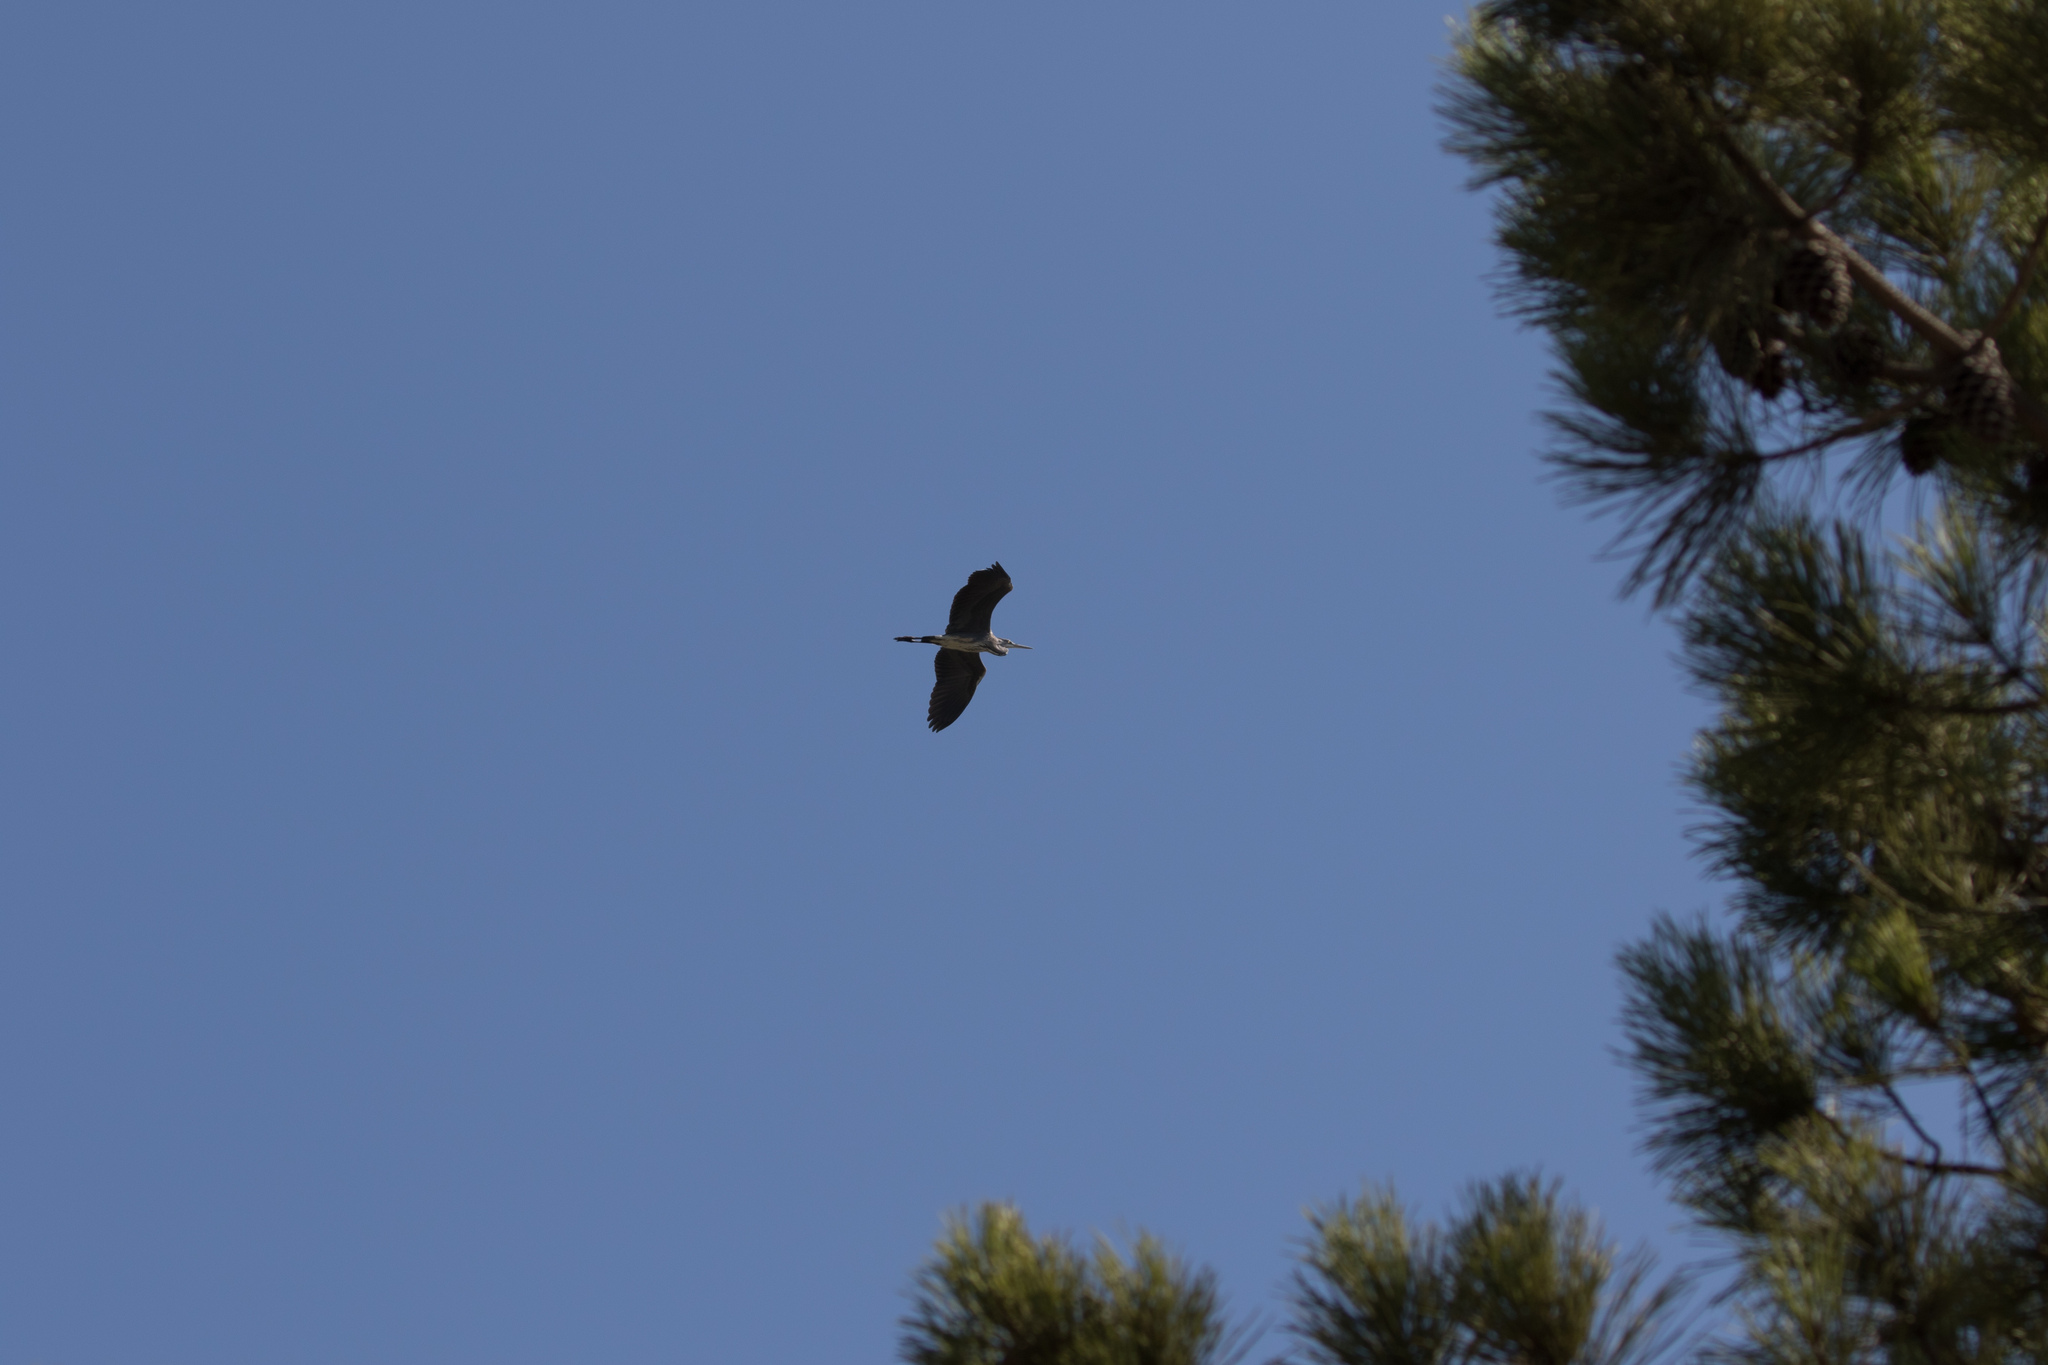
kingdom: Animalia
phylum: Chordata
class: Aves
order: Pelecaniformes
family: Ardeidae
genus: Ardea
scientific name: Ardea cinerea
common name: Grey heron
